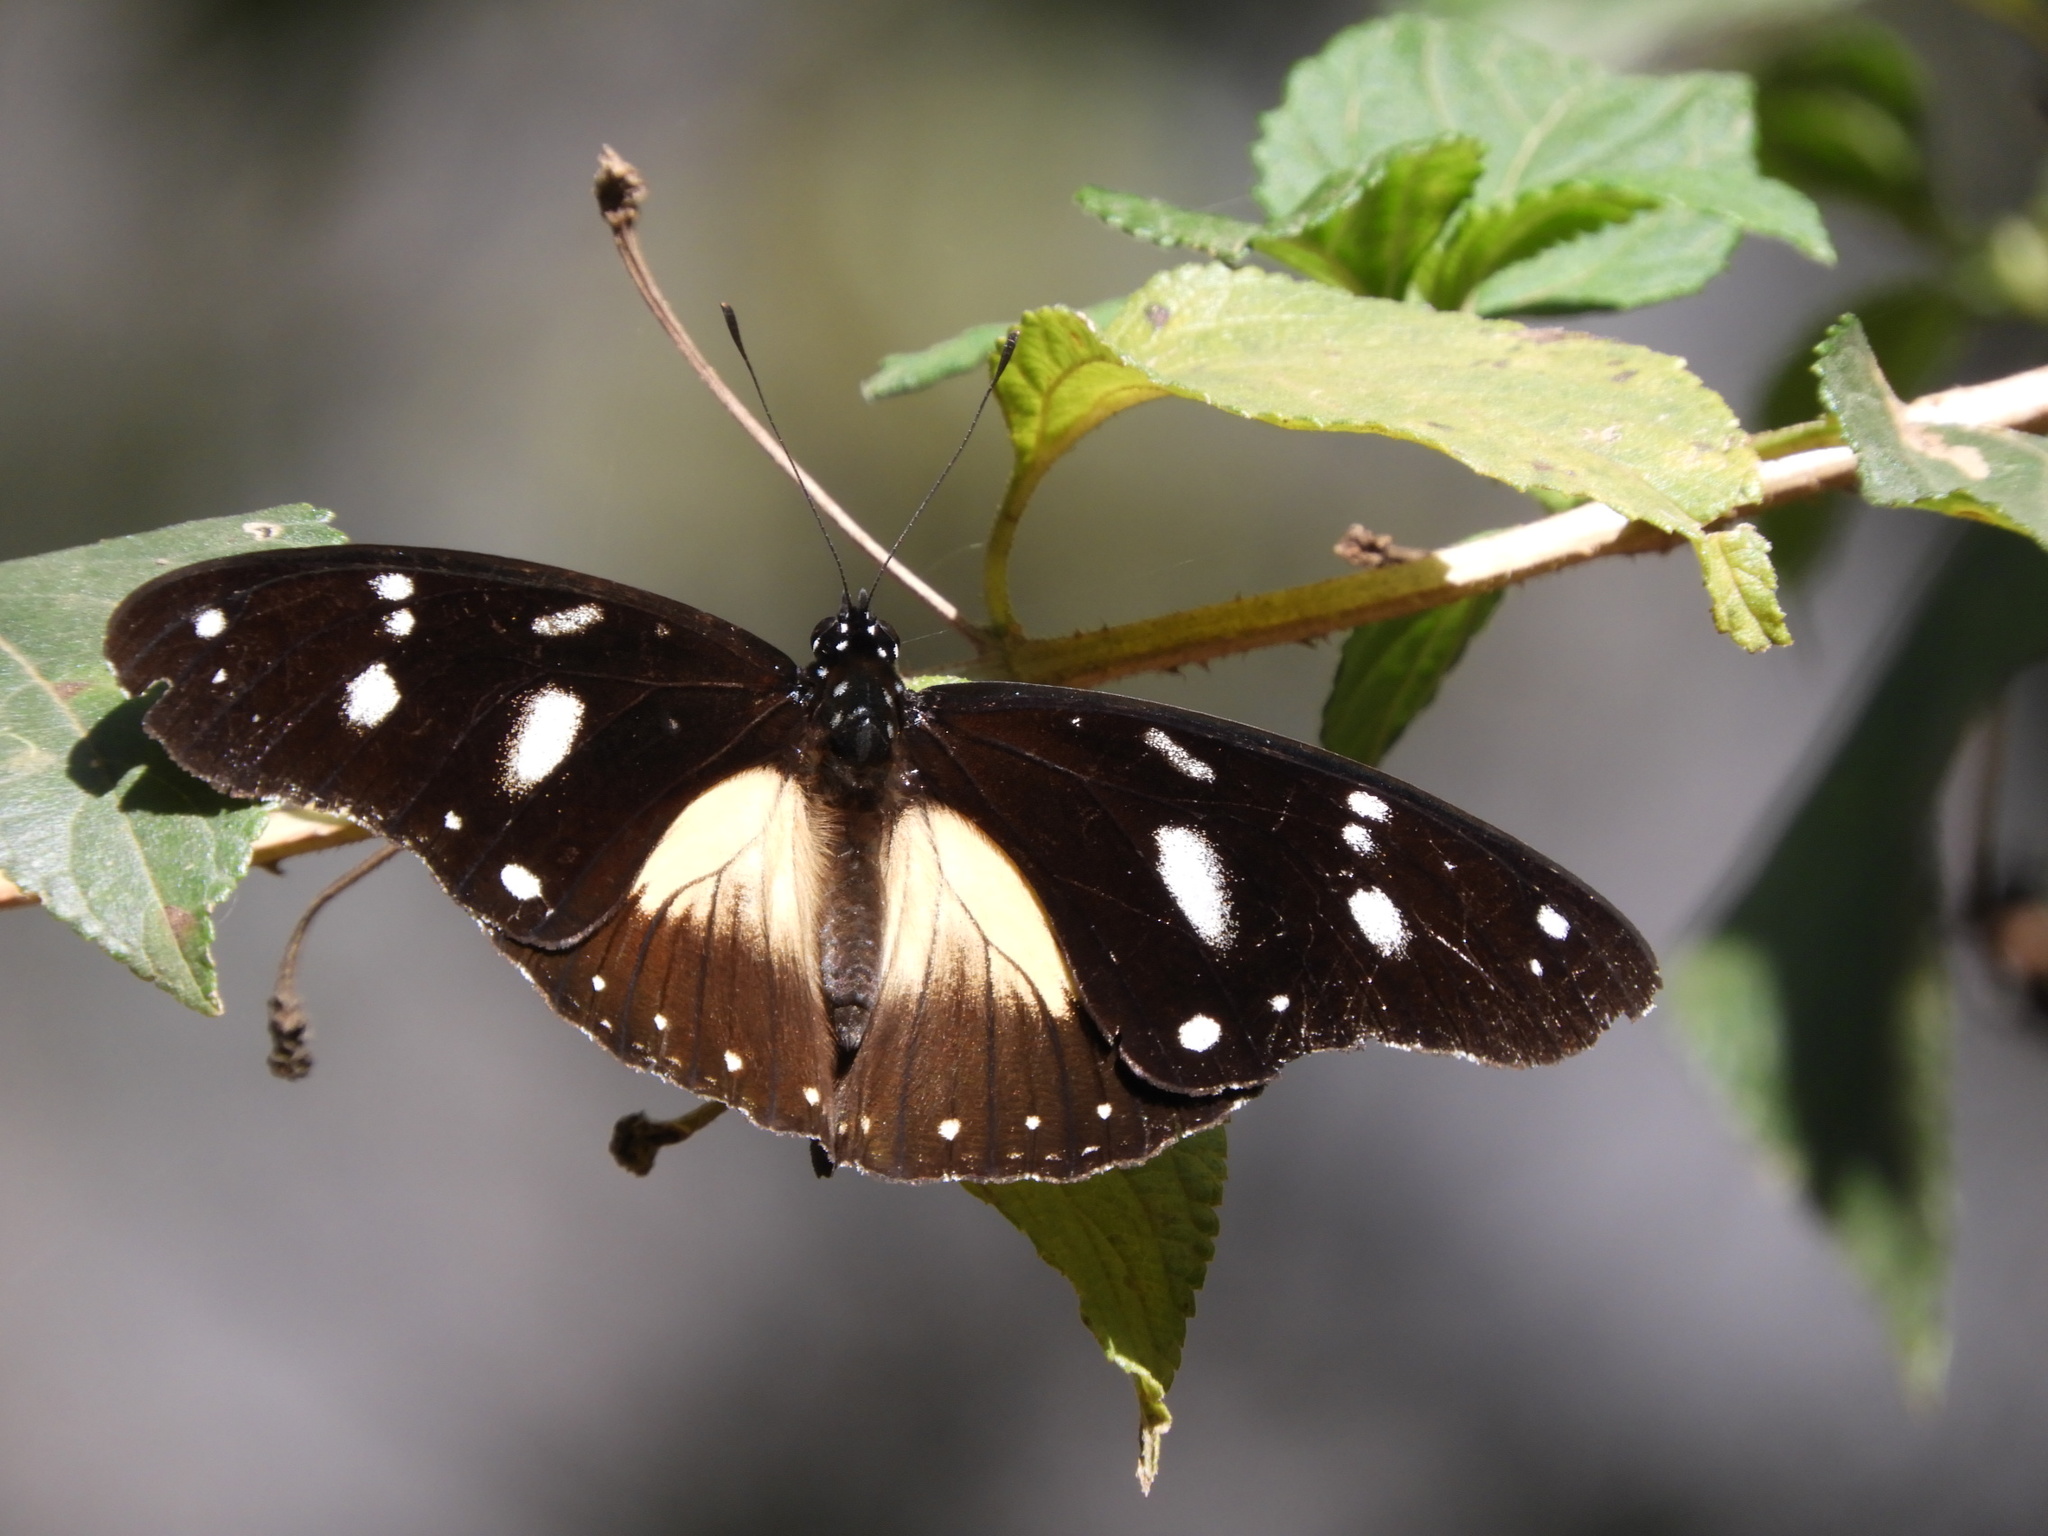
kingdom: Animalia
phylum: Arthropoda
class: Insecta
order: Lepidoptera
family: Nymphalidae
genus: Hypolimnas
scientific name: Hypolimnas dubius
